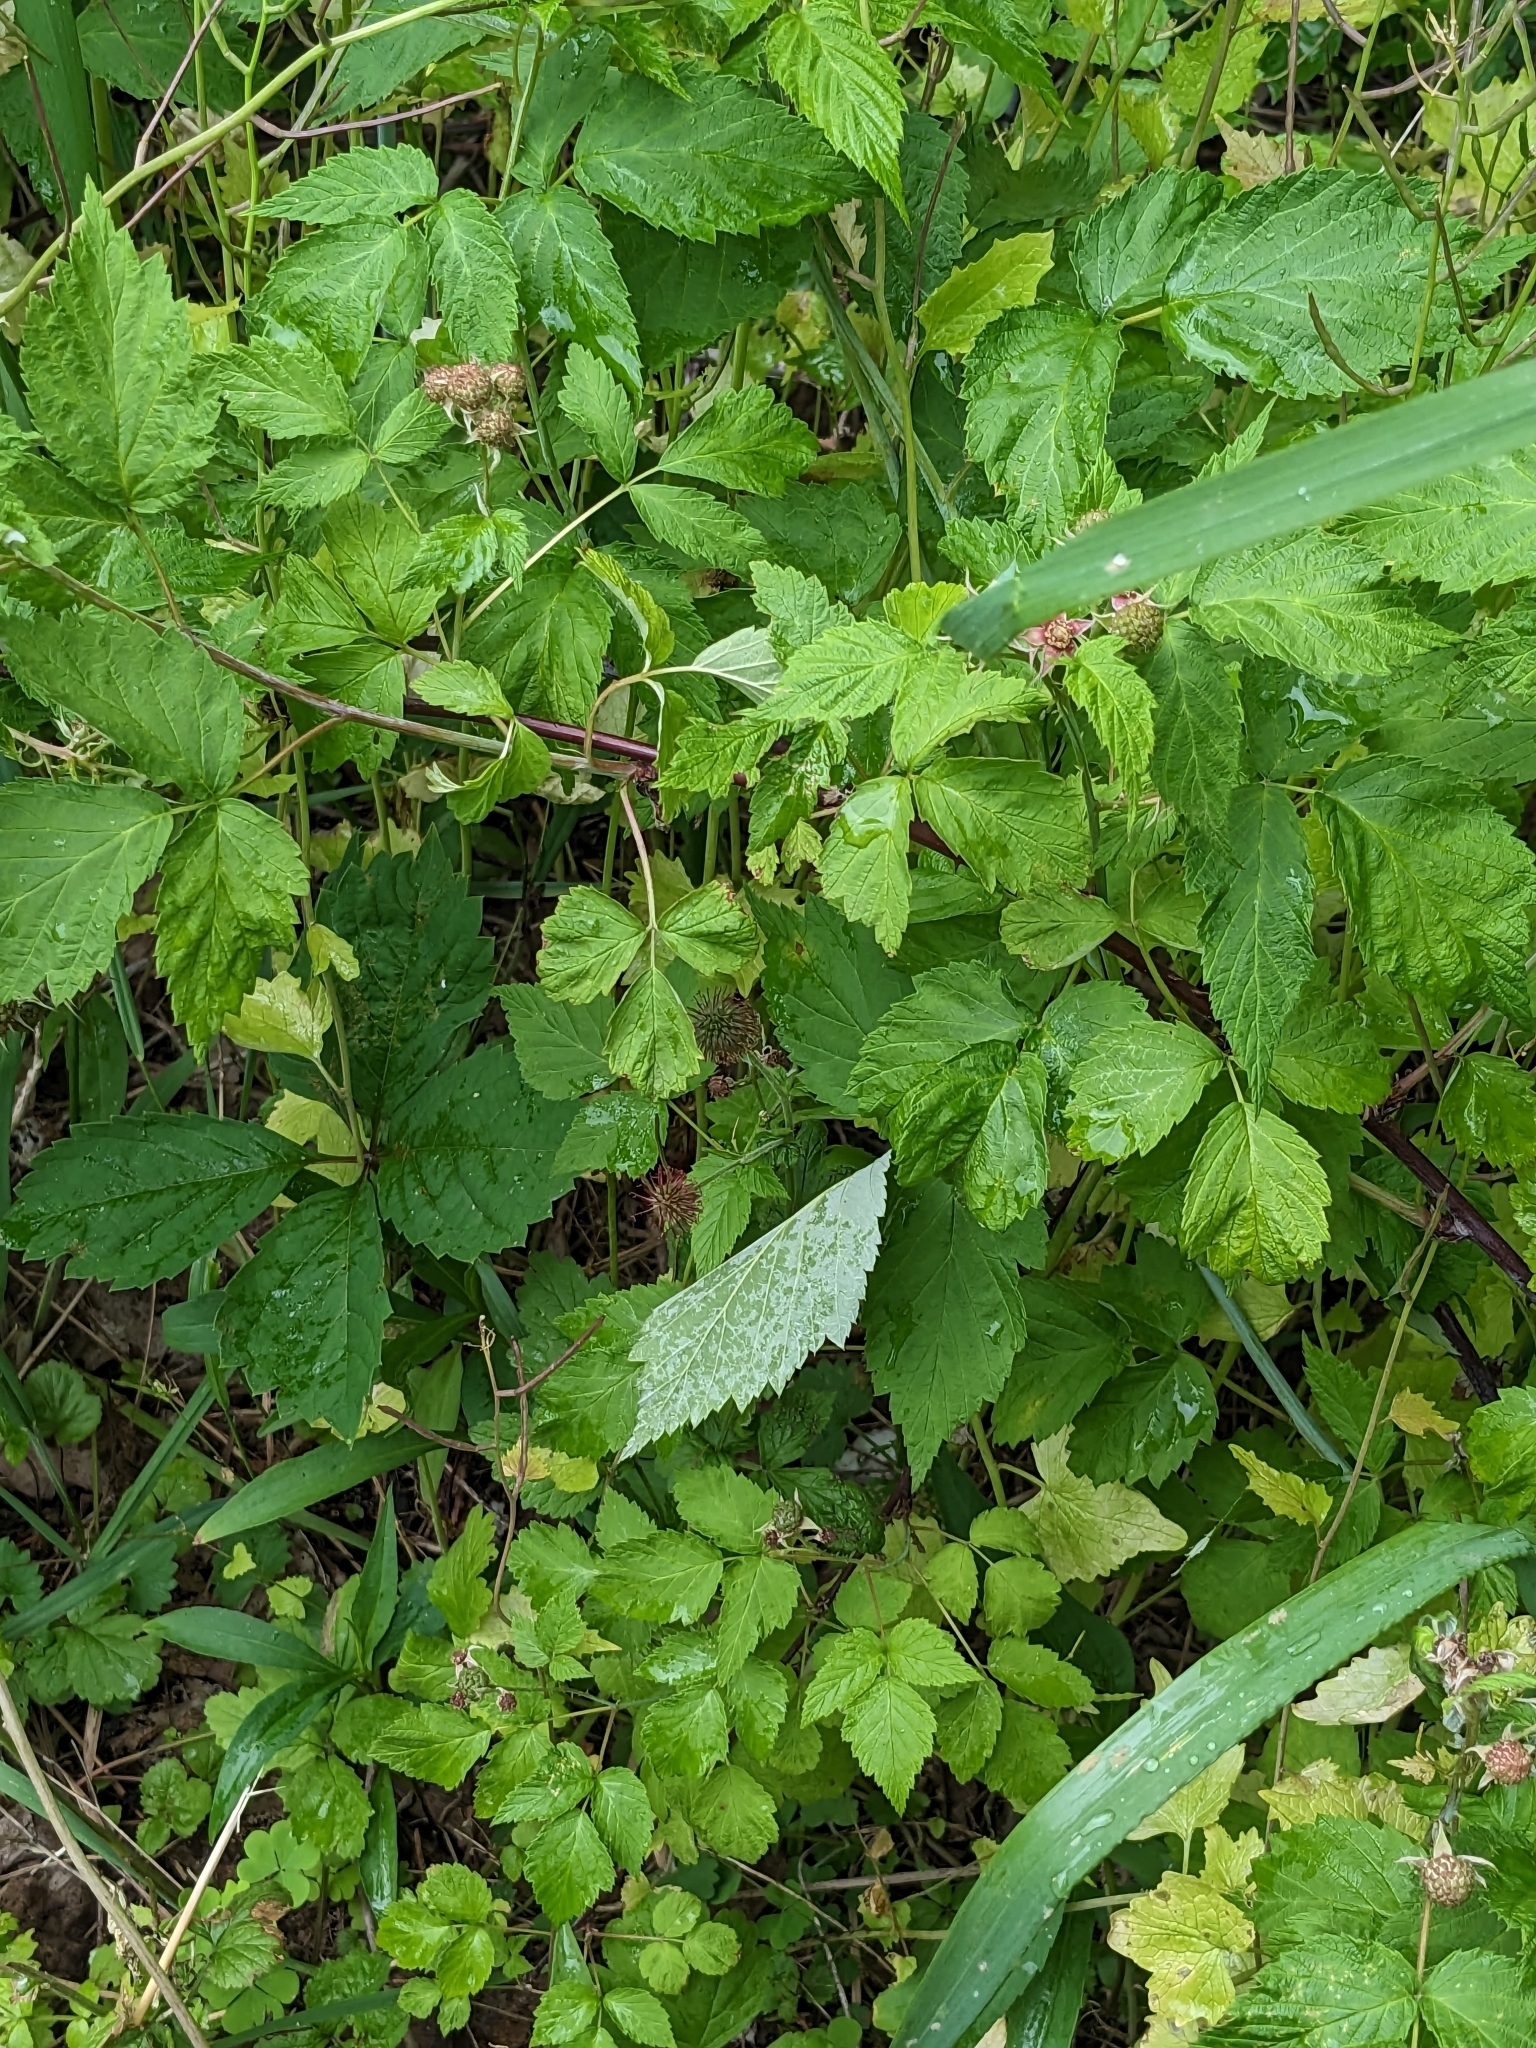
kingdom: Plantae
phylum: Tracheophyta
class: Magnoliopsida
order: Rosales
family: Rosaceae
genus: Rubus
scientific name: Rubus occidentalis
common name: Black raspberry
